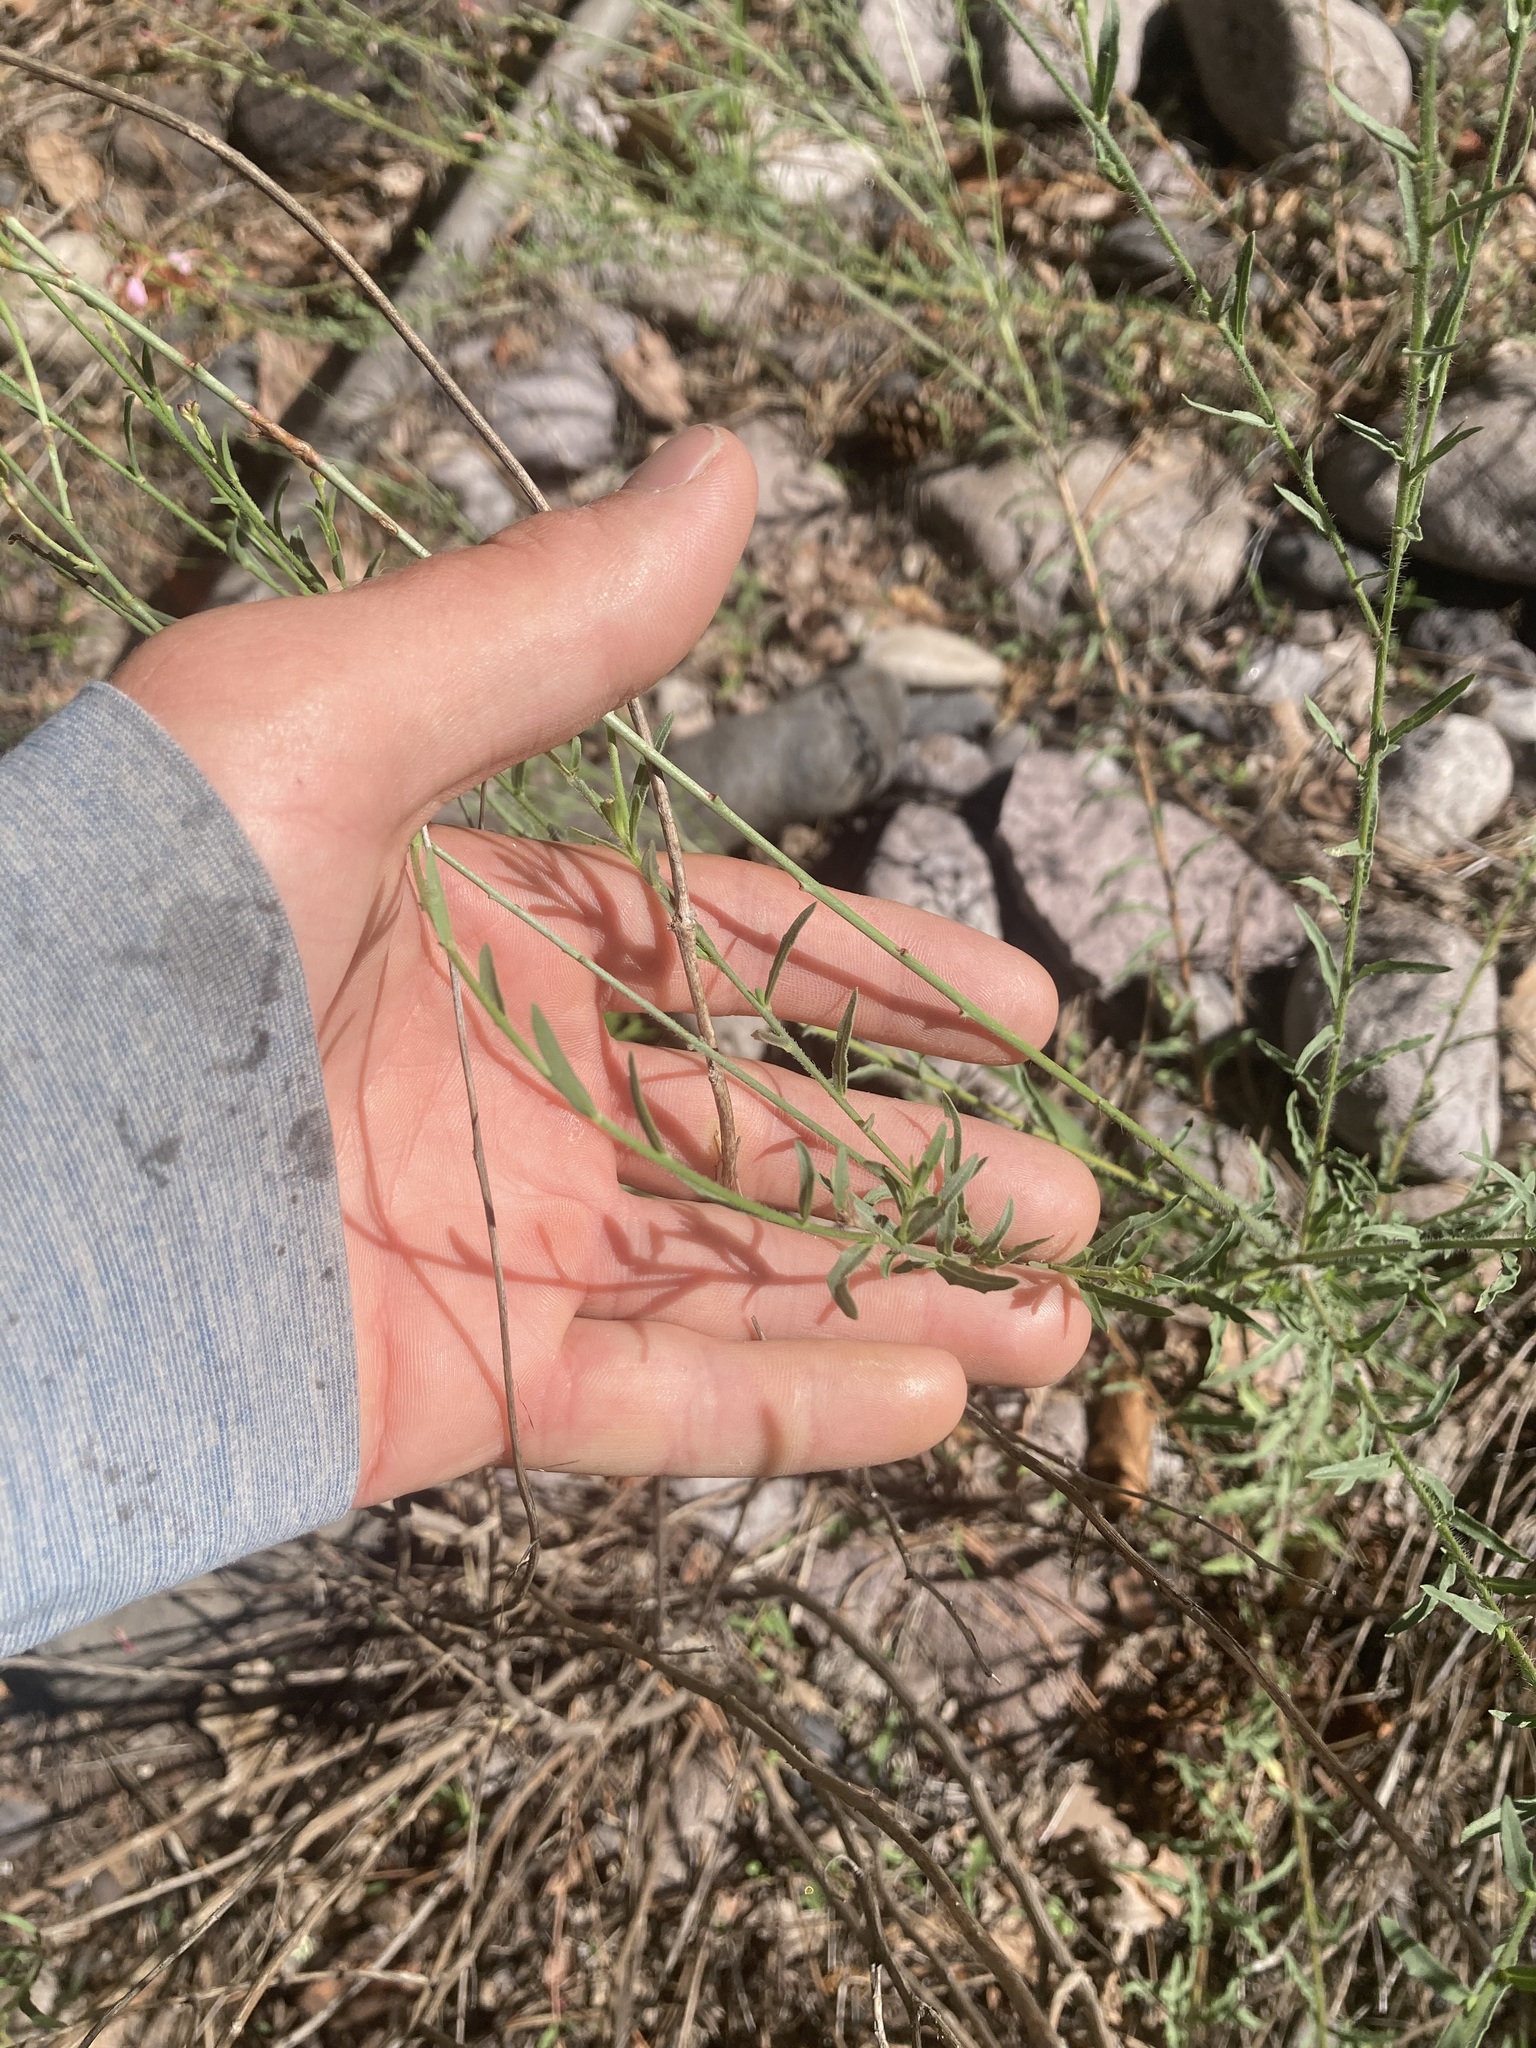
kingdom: Plantae
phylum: Tracheophyta
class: Magnoliopsida
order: Myrtales
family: Onagraceae
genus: Oenothera
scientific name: Oenothera podocarpa
